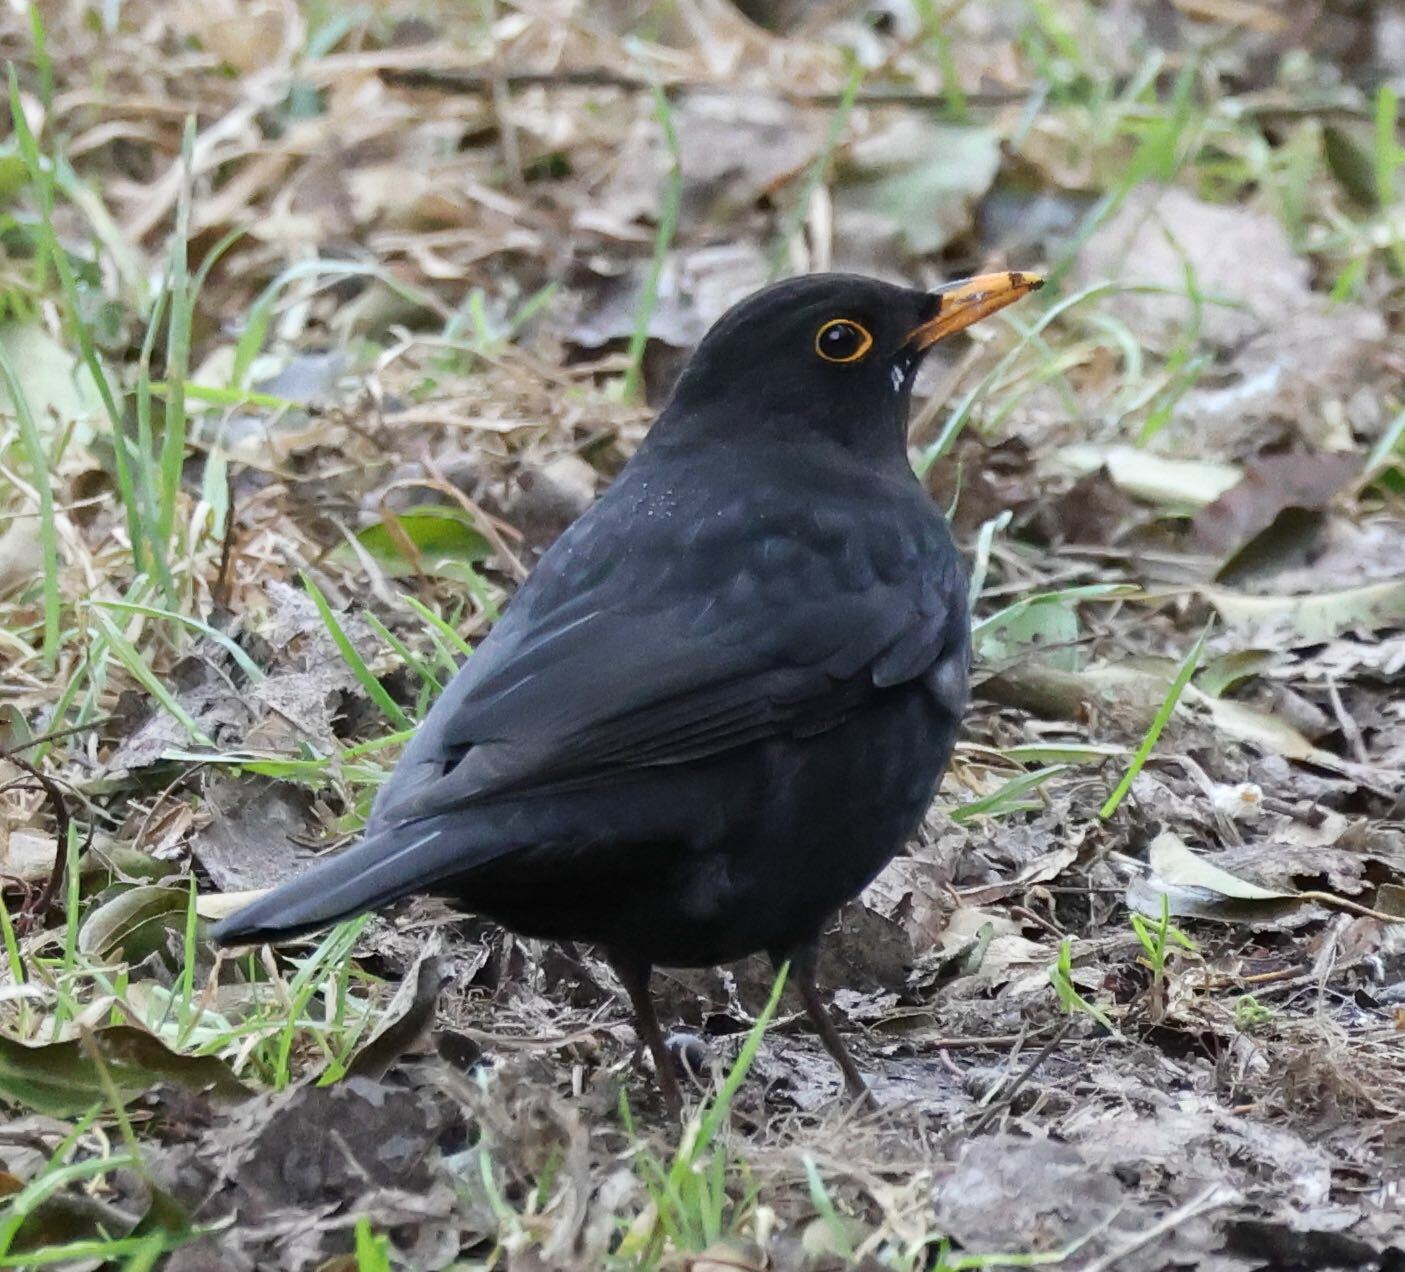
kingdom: Animalia
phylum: Chordata
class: Aves
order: Passeriformes
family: Turdidae
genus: Turdus
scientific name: Turdus merula
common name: Common blackbird
